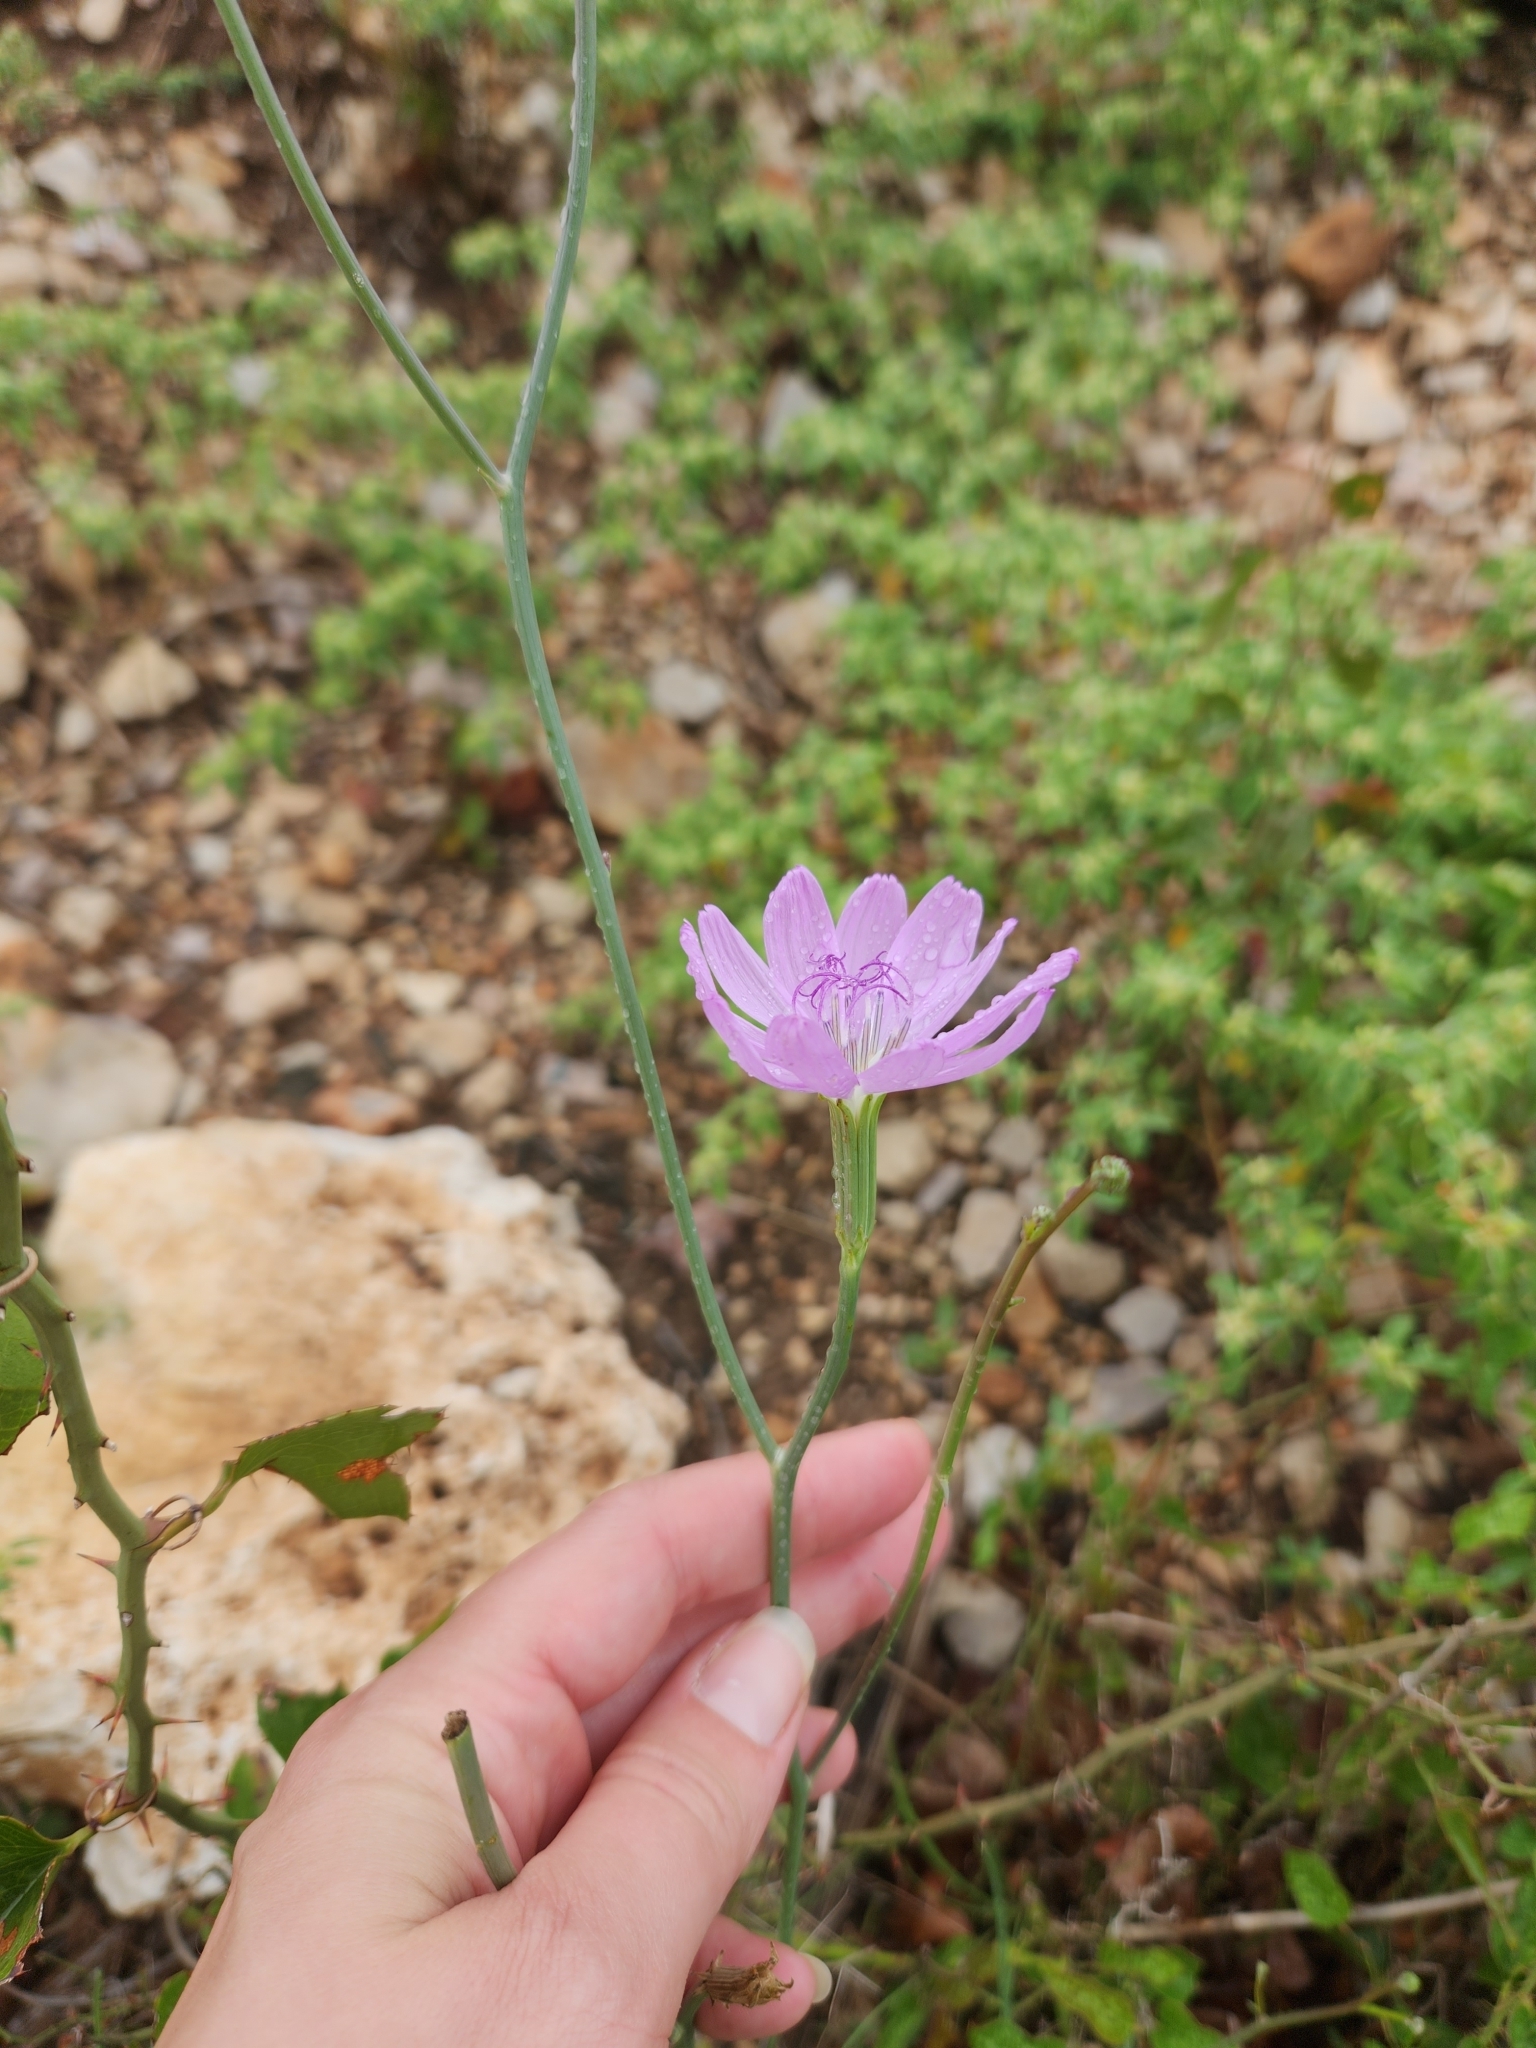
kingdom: Plantae
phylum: Tracheophyta
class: Magnoliopsida
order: Asterales
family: Asteraceae
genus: Lygodesmia
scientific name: Lygodesmia texana
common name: Texas skeleton-plant
